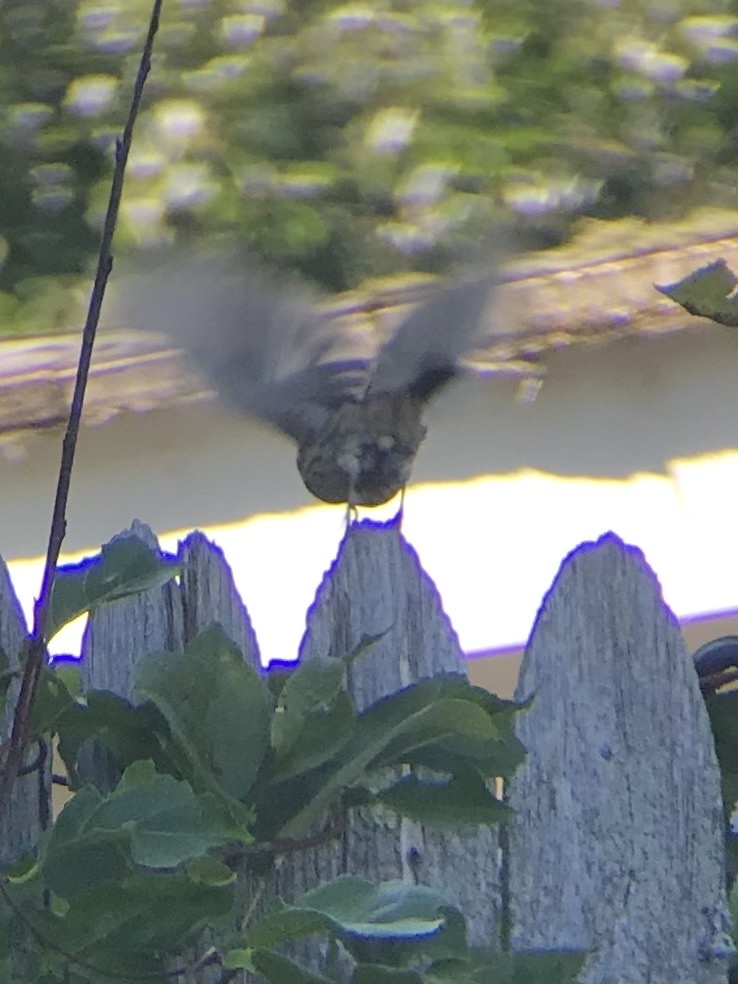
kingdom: Animalia
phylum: Chordata
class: Aves
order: Passeriformes
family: Turdidae
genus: Sialia
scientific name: Sialia sialis
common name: Eastern bluebird
